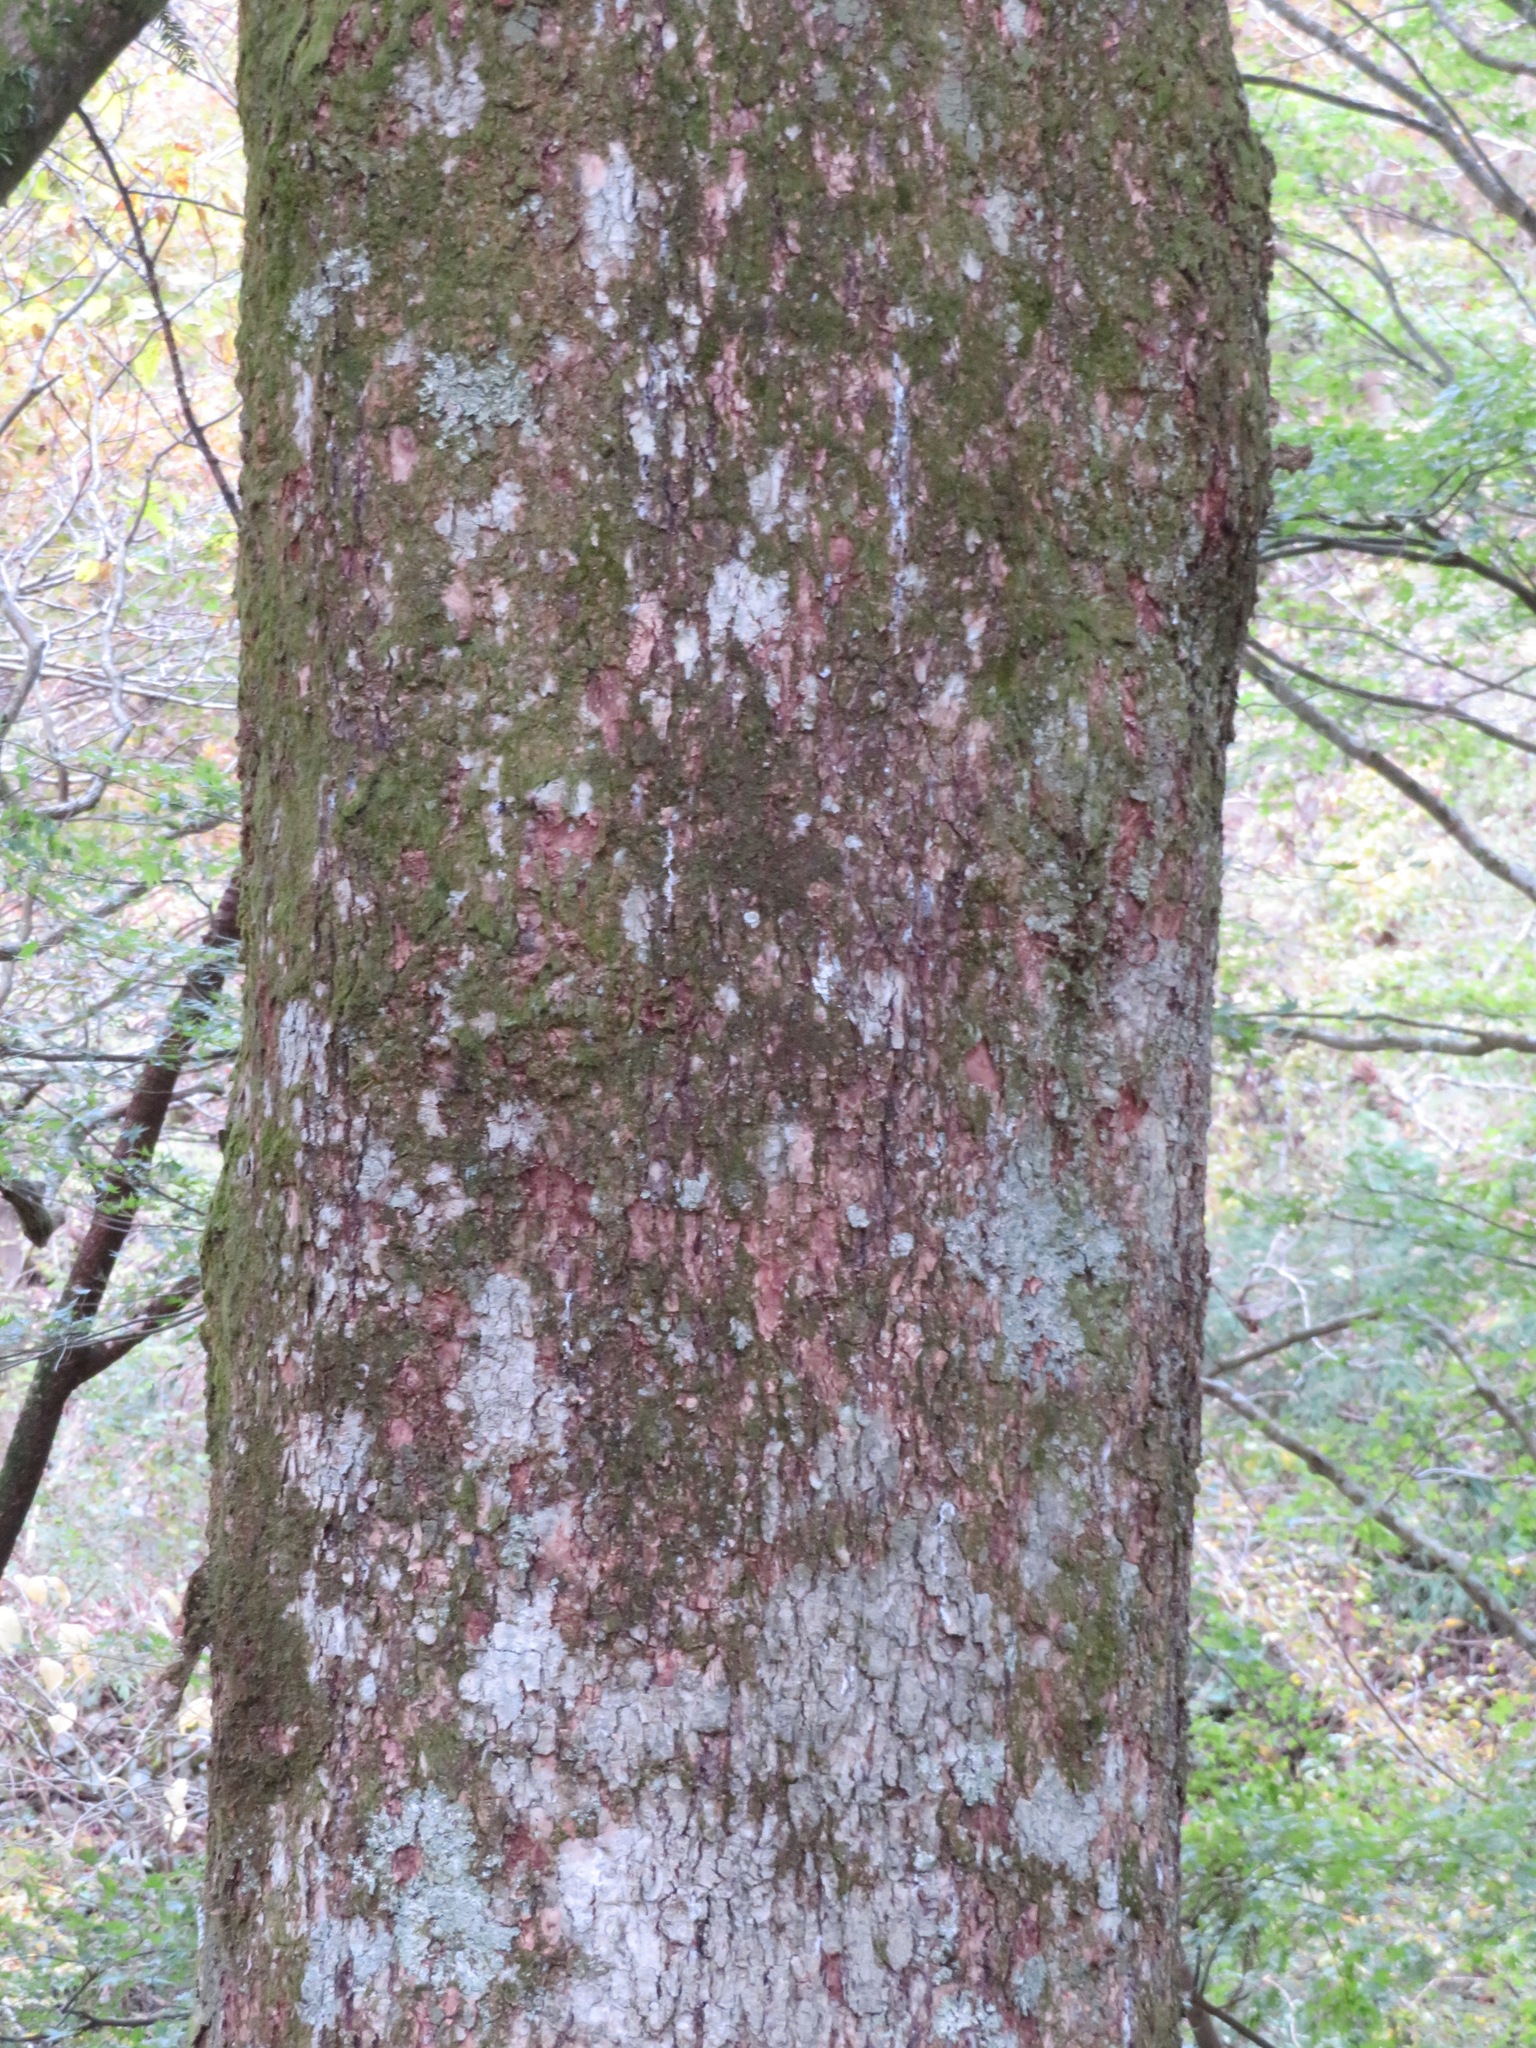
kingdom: Plantae
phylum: Tracheophyta
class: Pinopsida
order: Pinales
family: Pinaceae
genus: Abies
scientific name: Abies firma
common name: Momi fir
